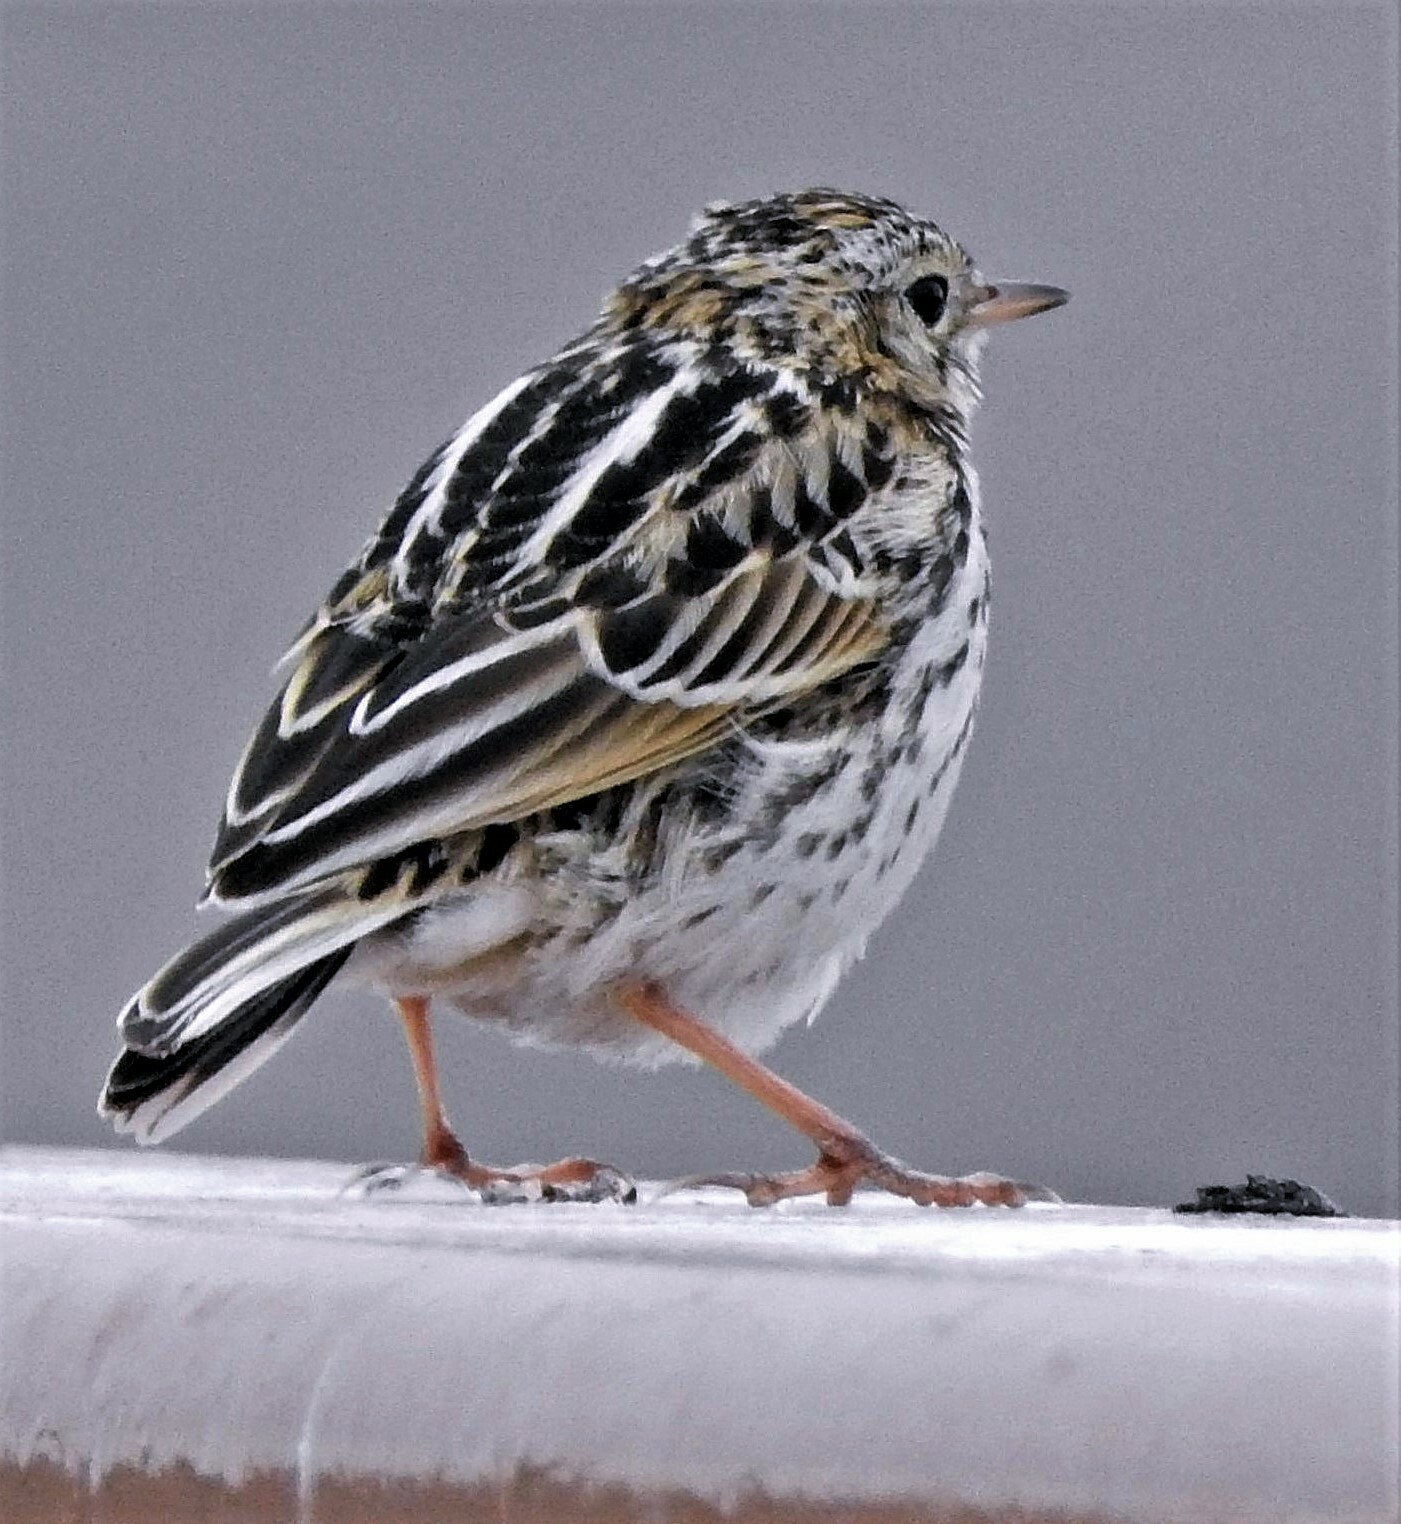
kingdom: Animalia
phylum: Chordata
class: Aves
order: Passeriformes
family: Motacillidae
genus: Anthus
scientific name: Anthus correndera
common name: Correndera pipit
